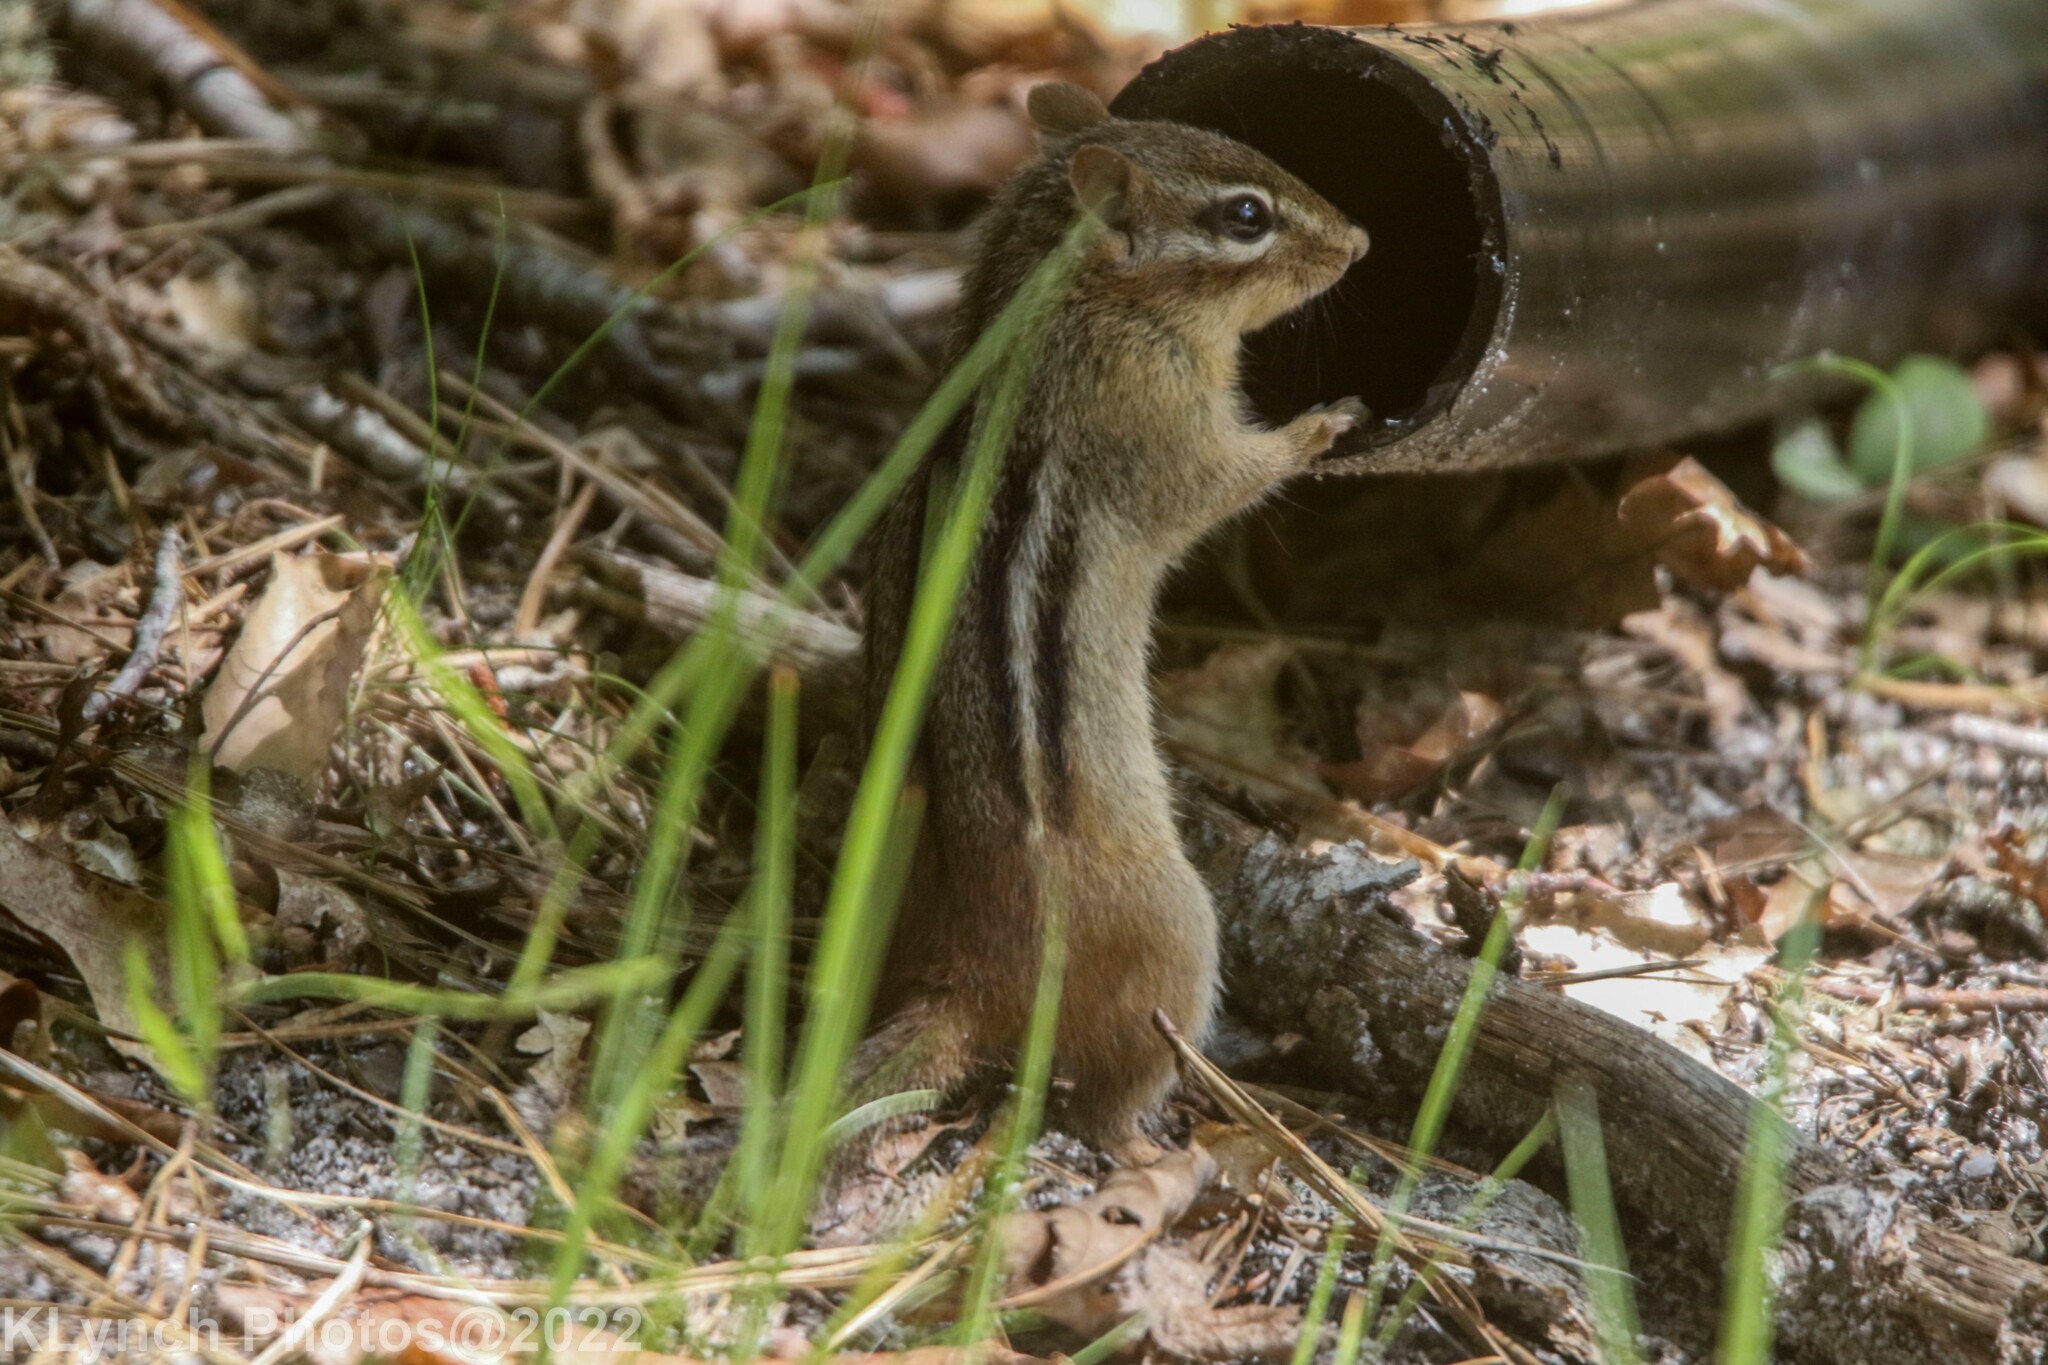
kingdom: Animalia
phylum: Chordata
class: Mammalia
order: Rodentia
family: Sciuridae
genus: Tamias
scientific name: Tamias striatus
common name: Eastern chipmunk
